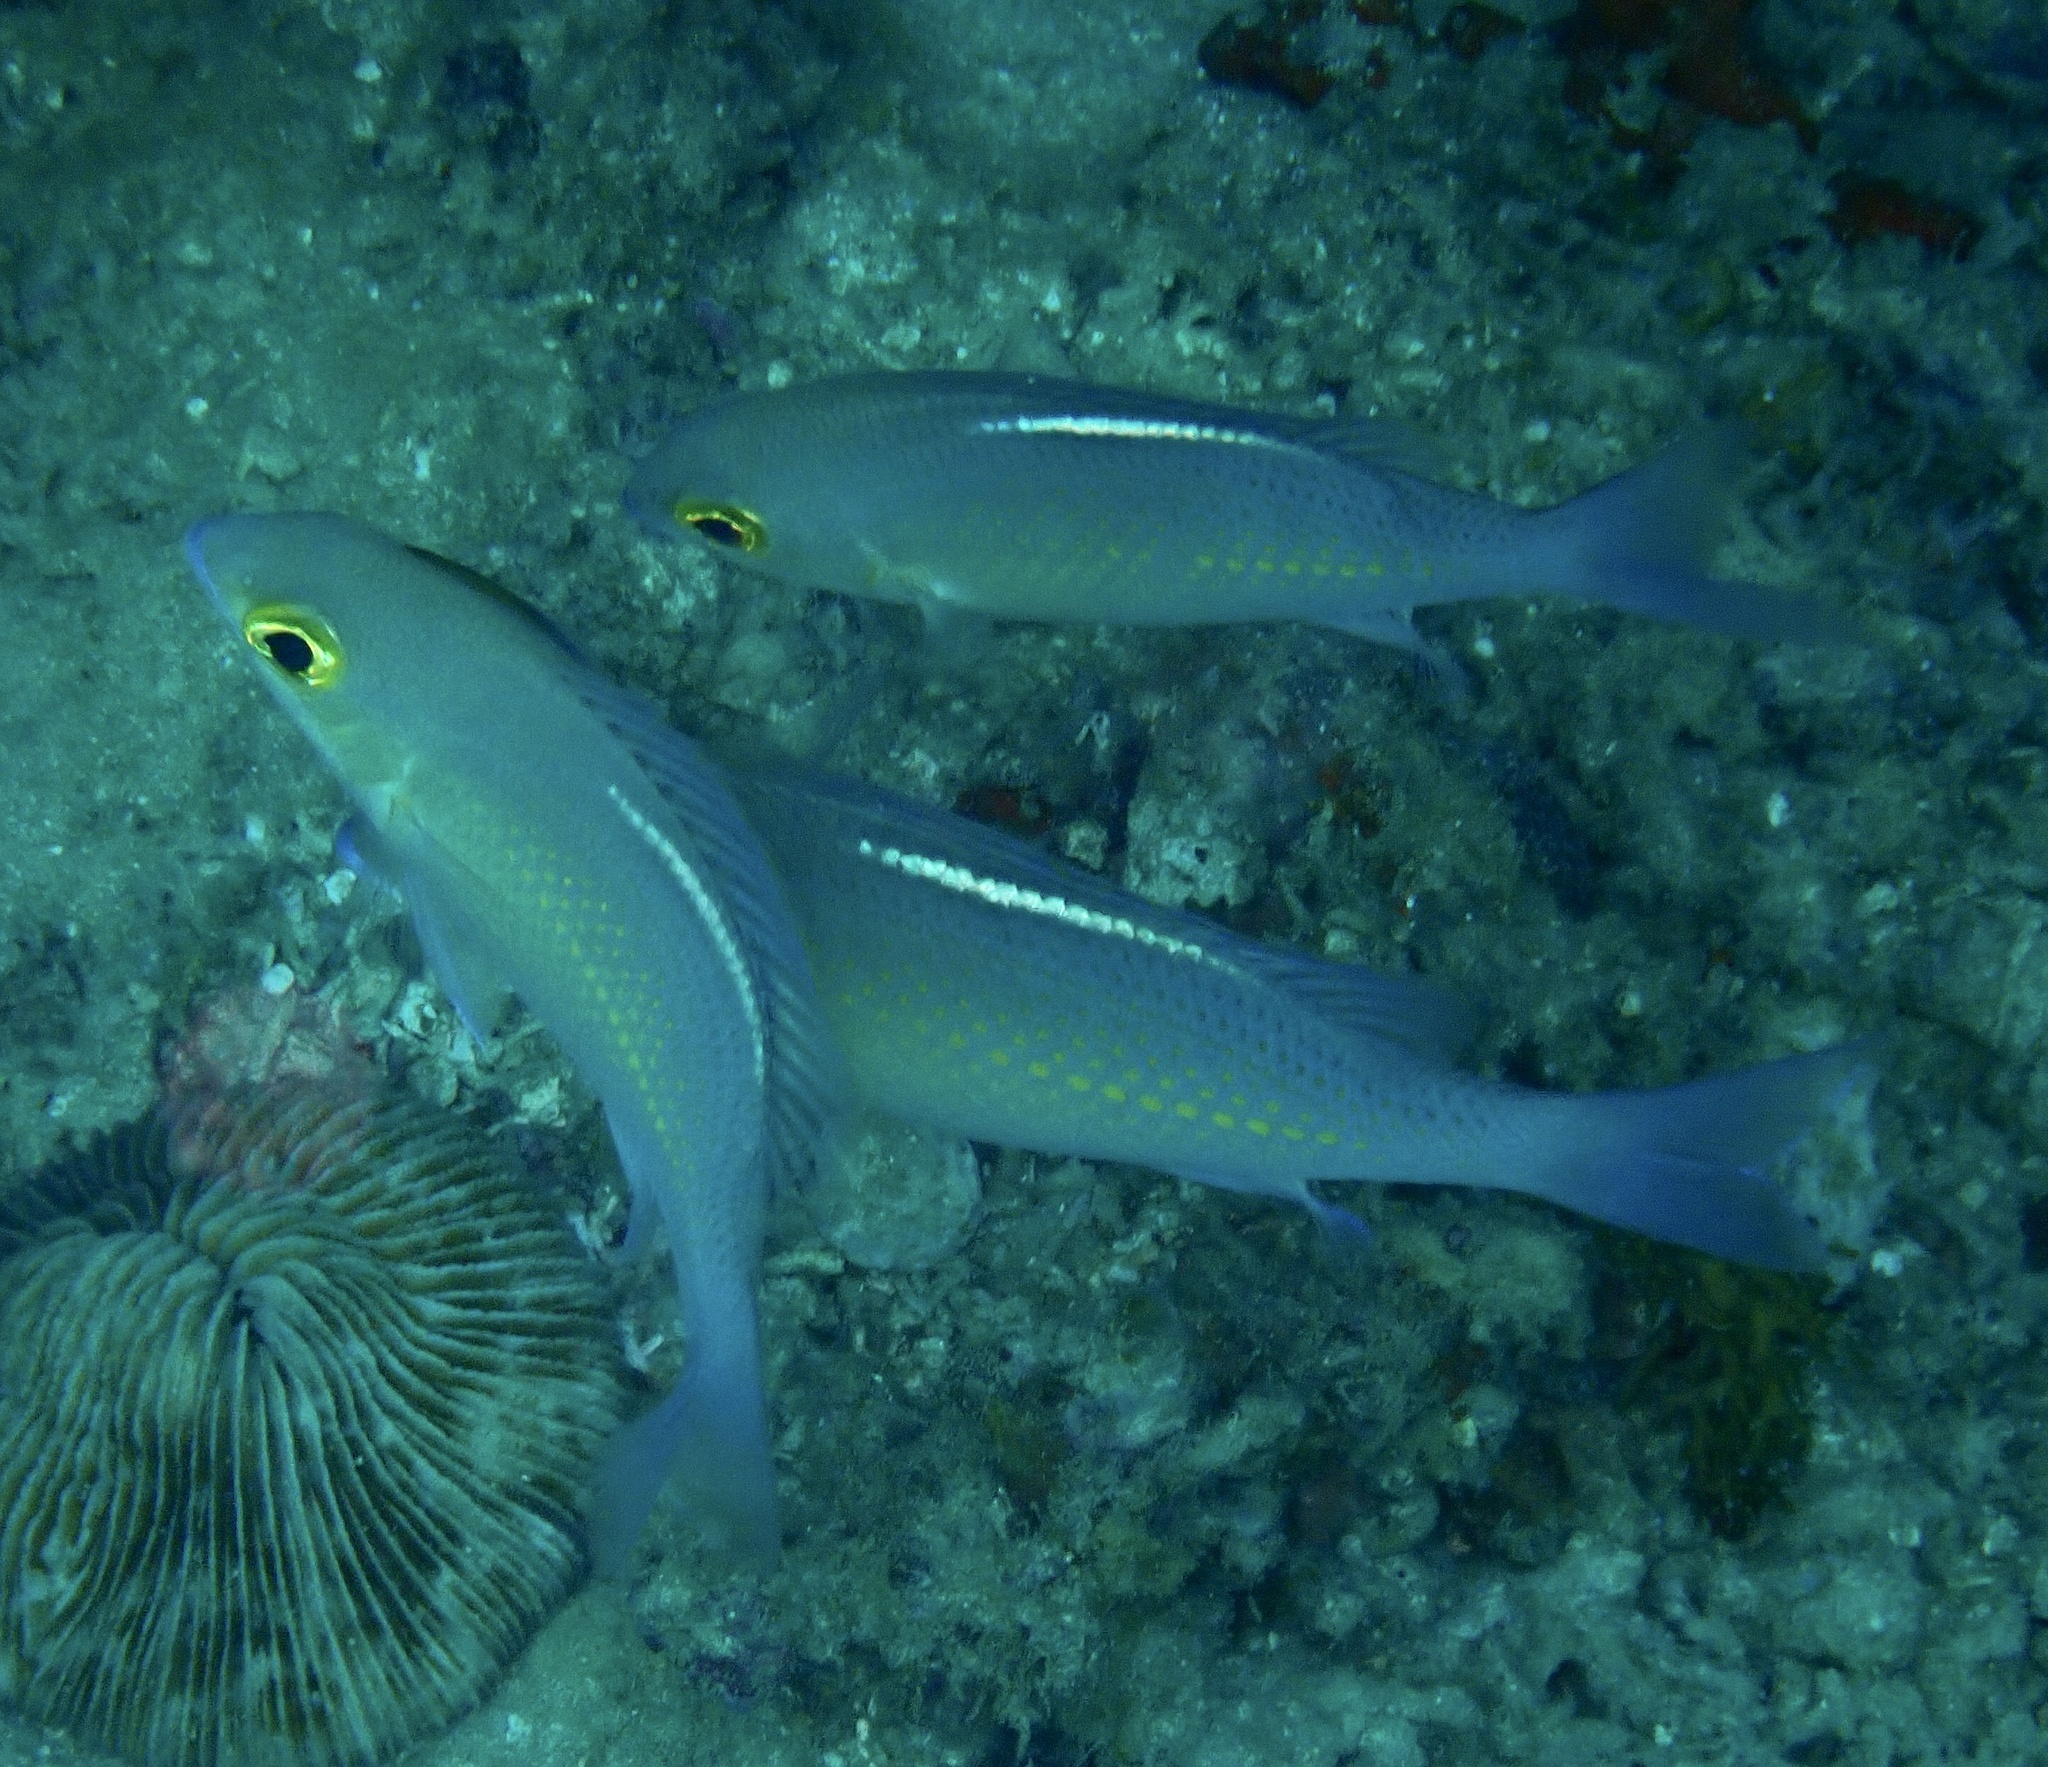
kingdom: Animalia
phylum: Chordata
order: Perciformes
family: Nemipteridae
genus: Scolopsis
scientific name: Scolopsis ciliata
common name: Ciliate spinecheek
